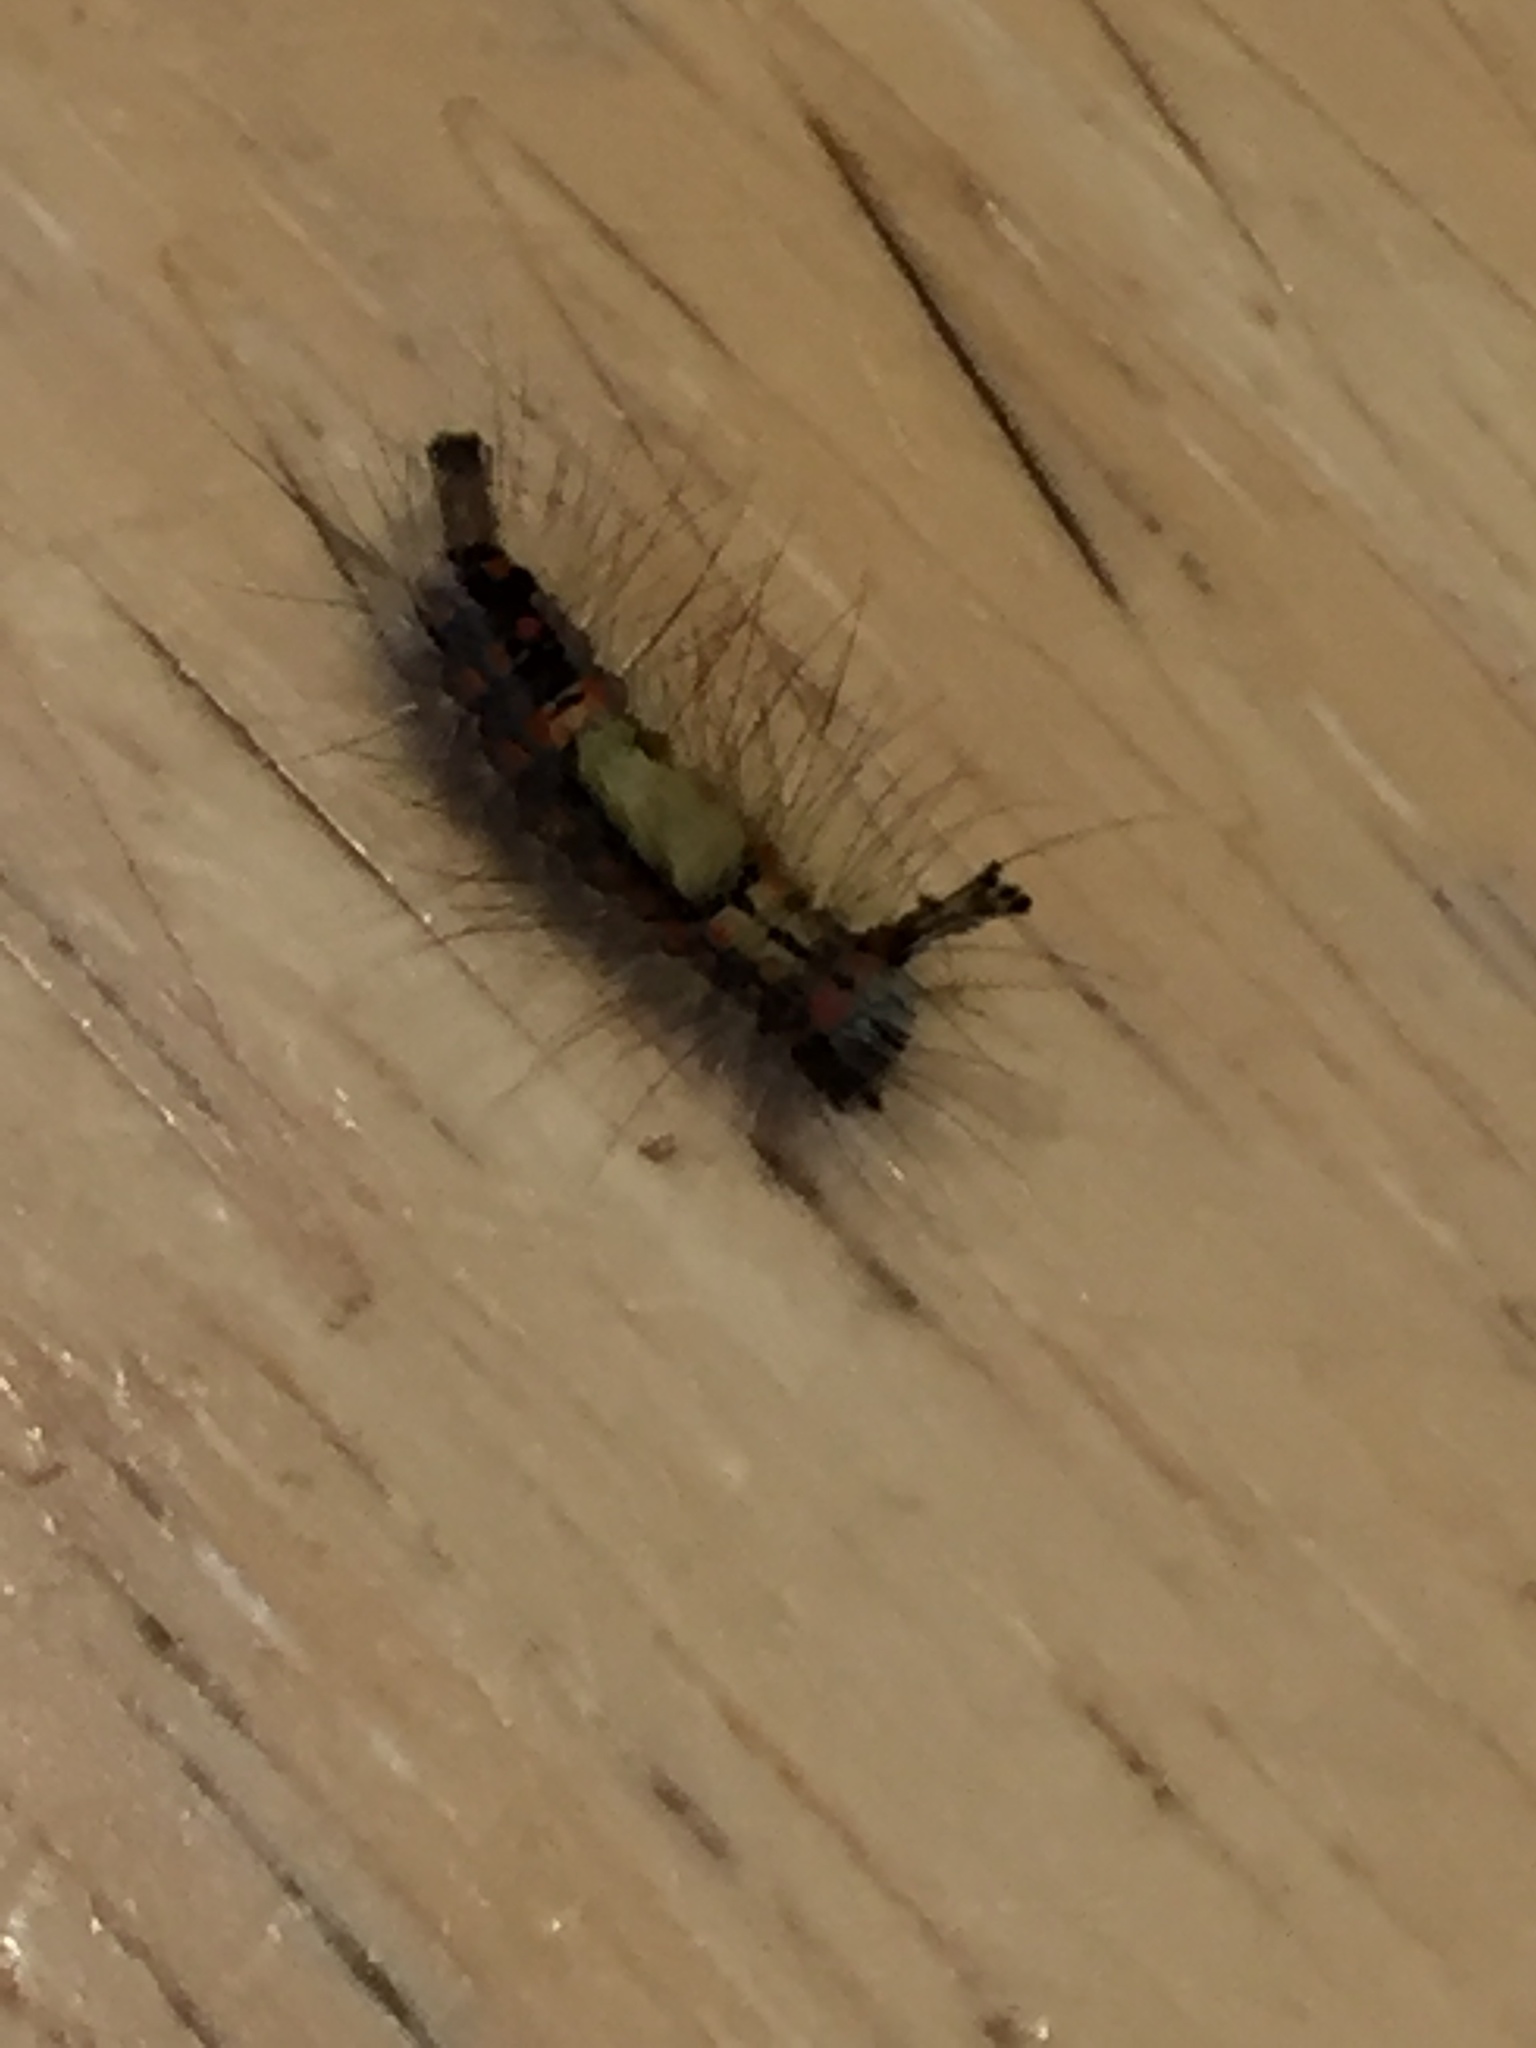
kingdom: Animalia
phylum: Arthropoda
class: Insecta
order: Lepidoptera
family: Erebidae
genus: Orgyia
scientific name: Orgyia antiqua
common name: Vapourer
